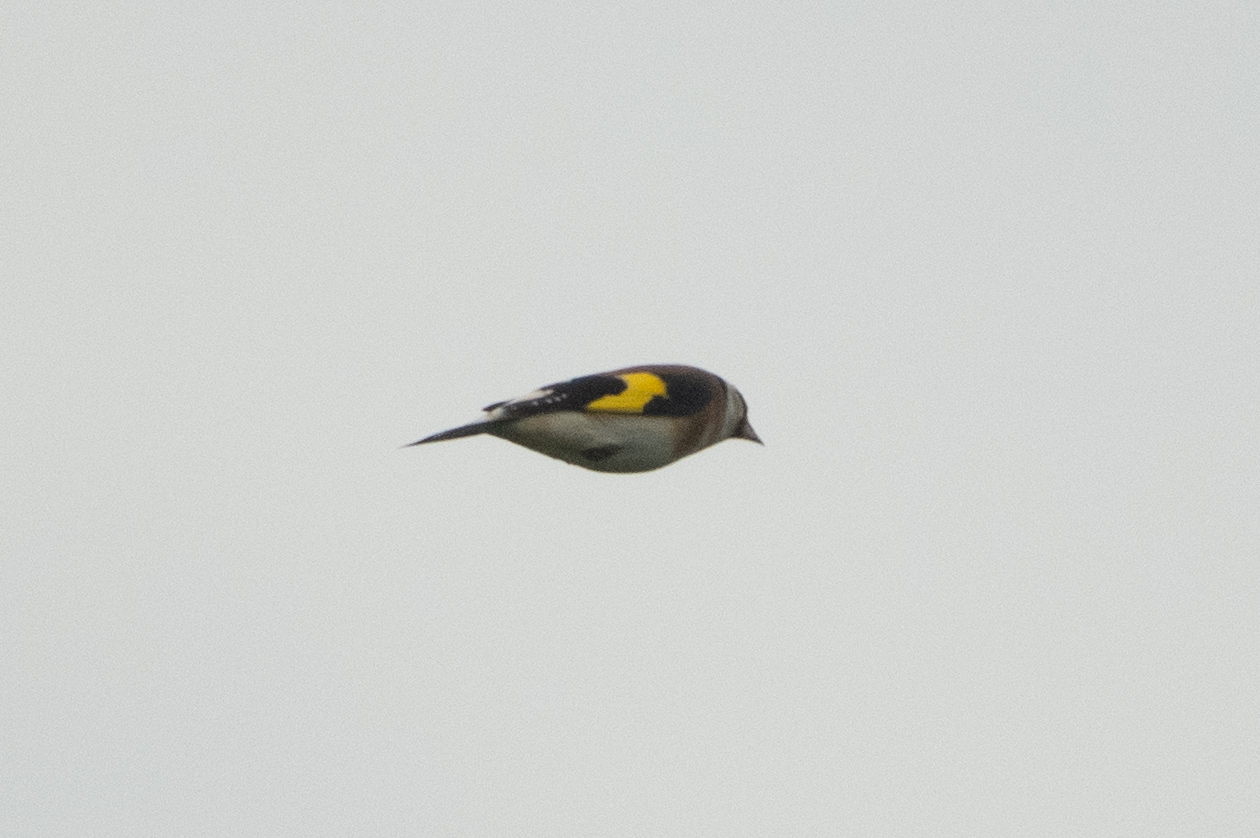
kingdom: Animalia
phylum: Chordata
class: Aves
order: Passeriformes
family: Fringillidae
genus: Carduelis
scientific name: Carduelis carduelis
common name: European goldfinch
